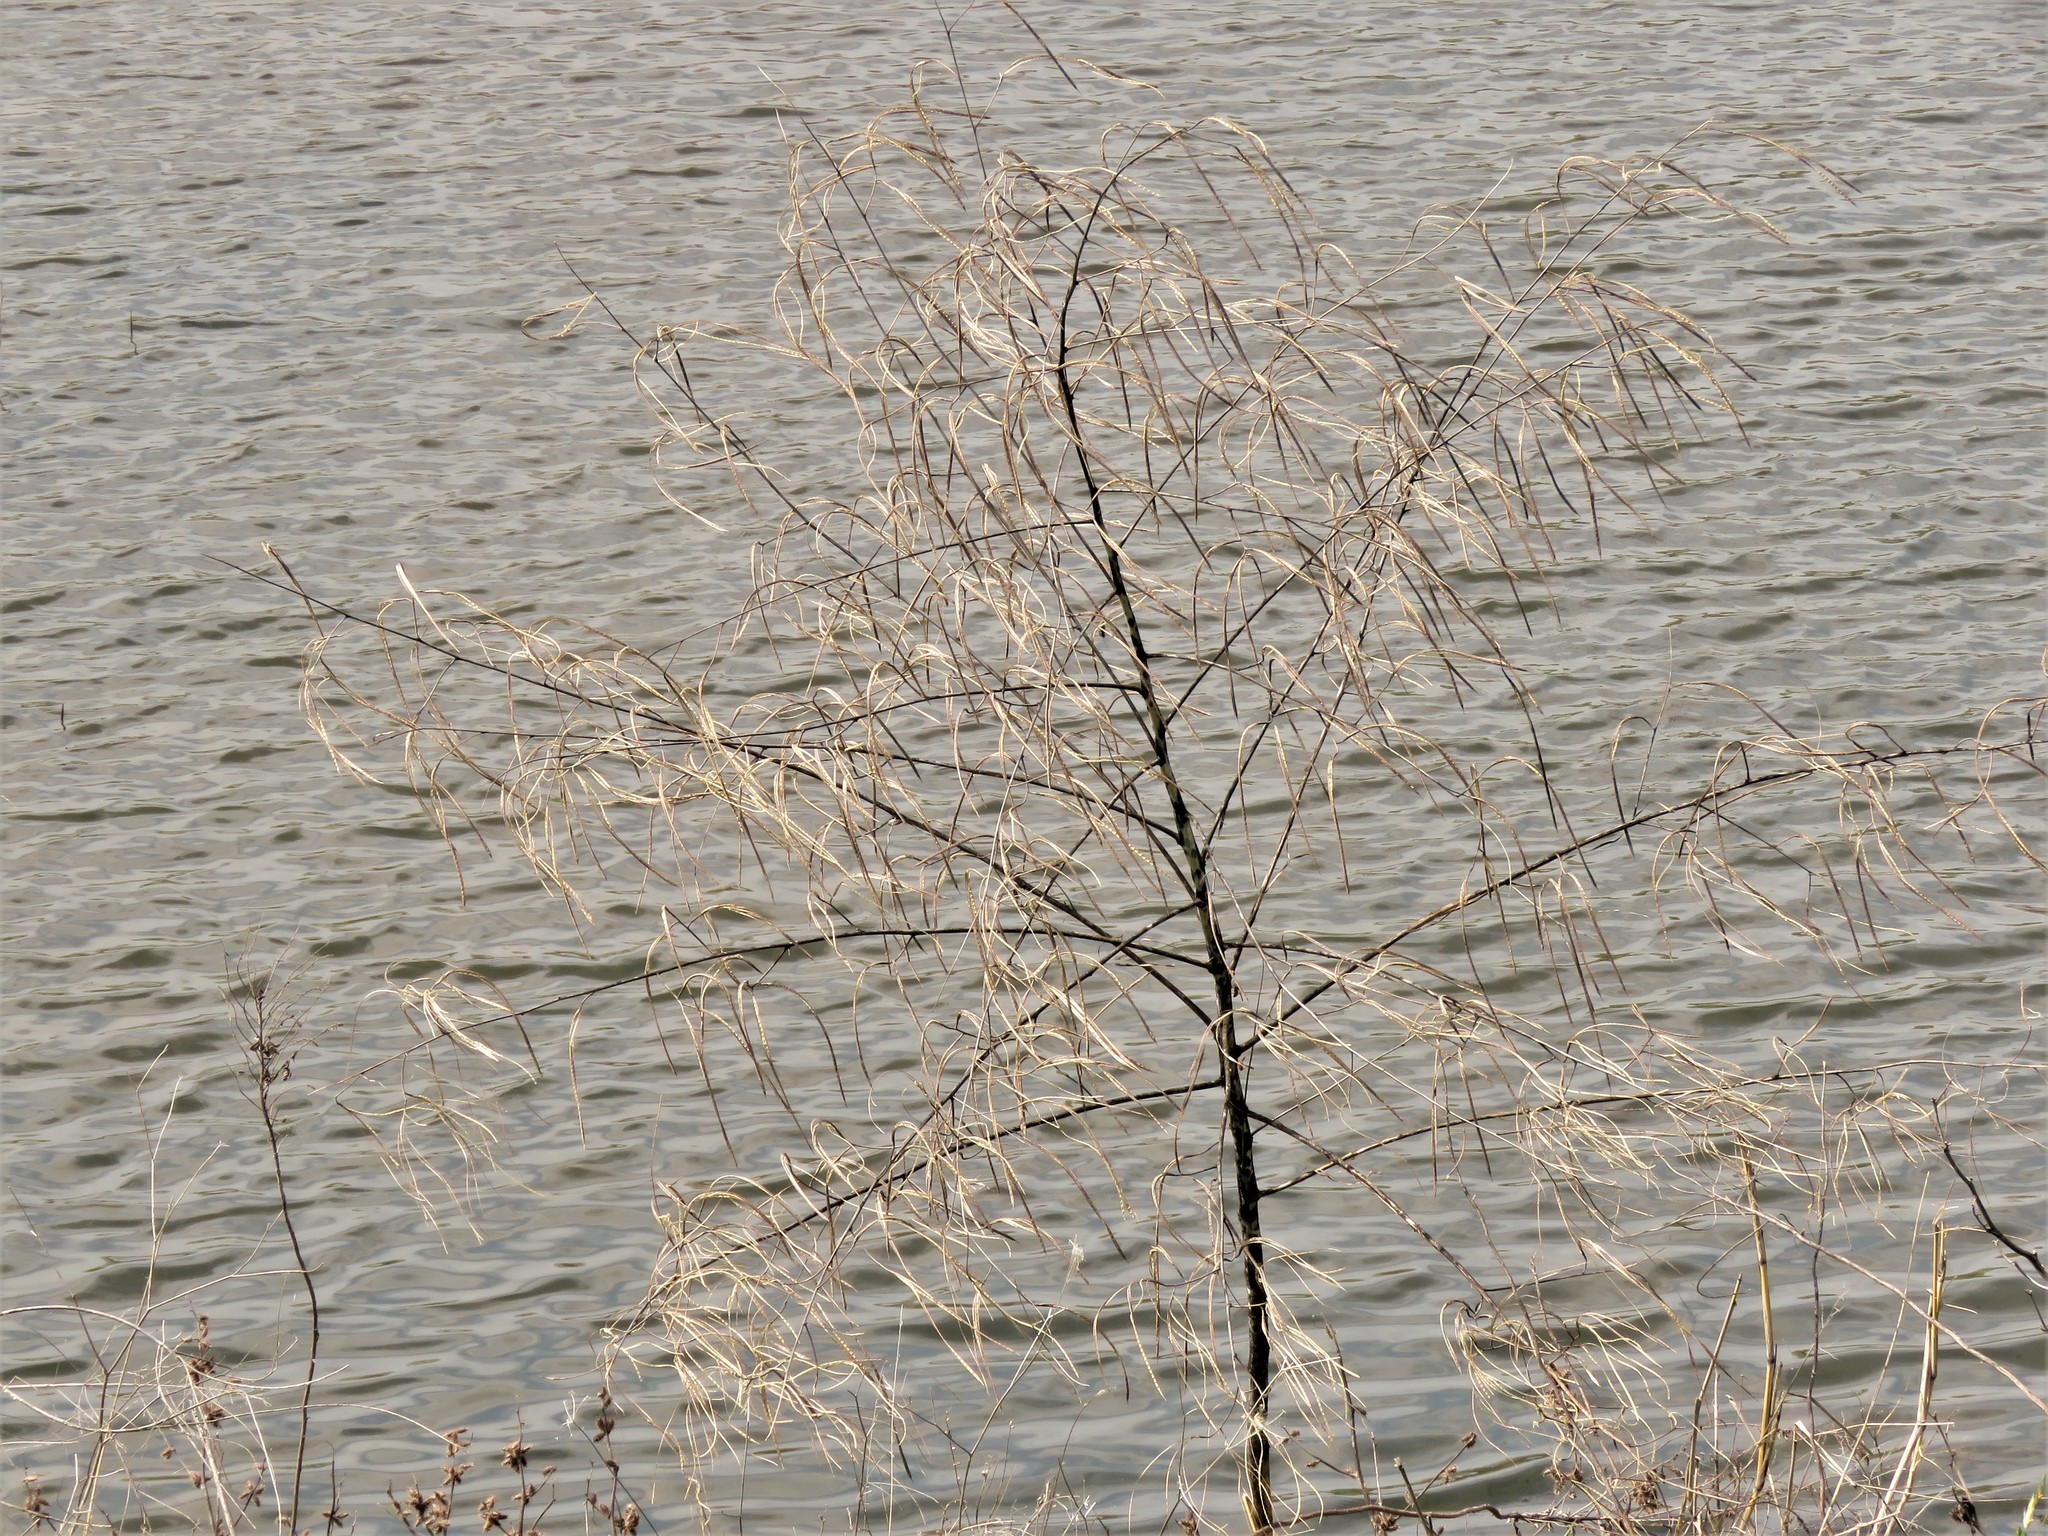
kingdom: Plantae
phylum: Tracheophyta
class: Magnoliopsida
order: Fabales
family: Fabaceae
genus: Sesbania
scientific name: Sesbania herbacea
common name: Bigpod sesbania
